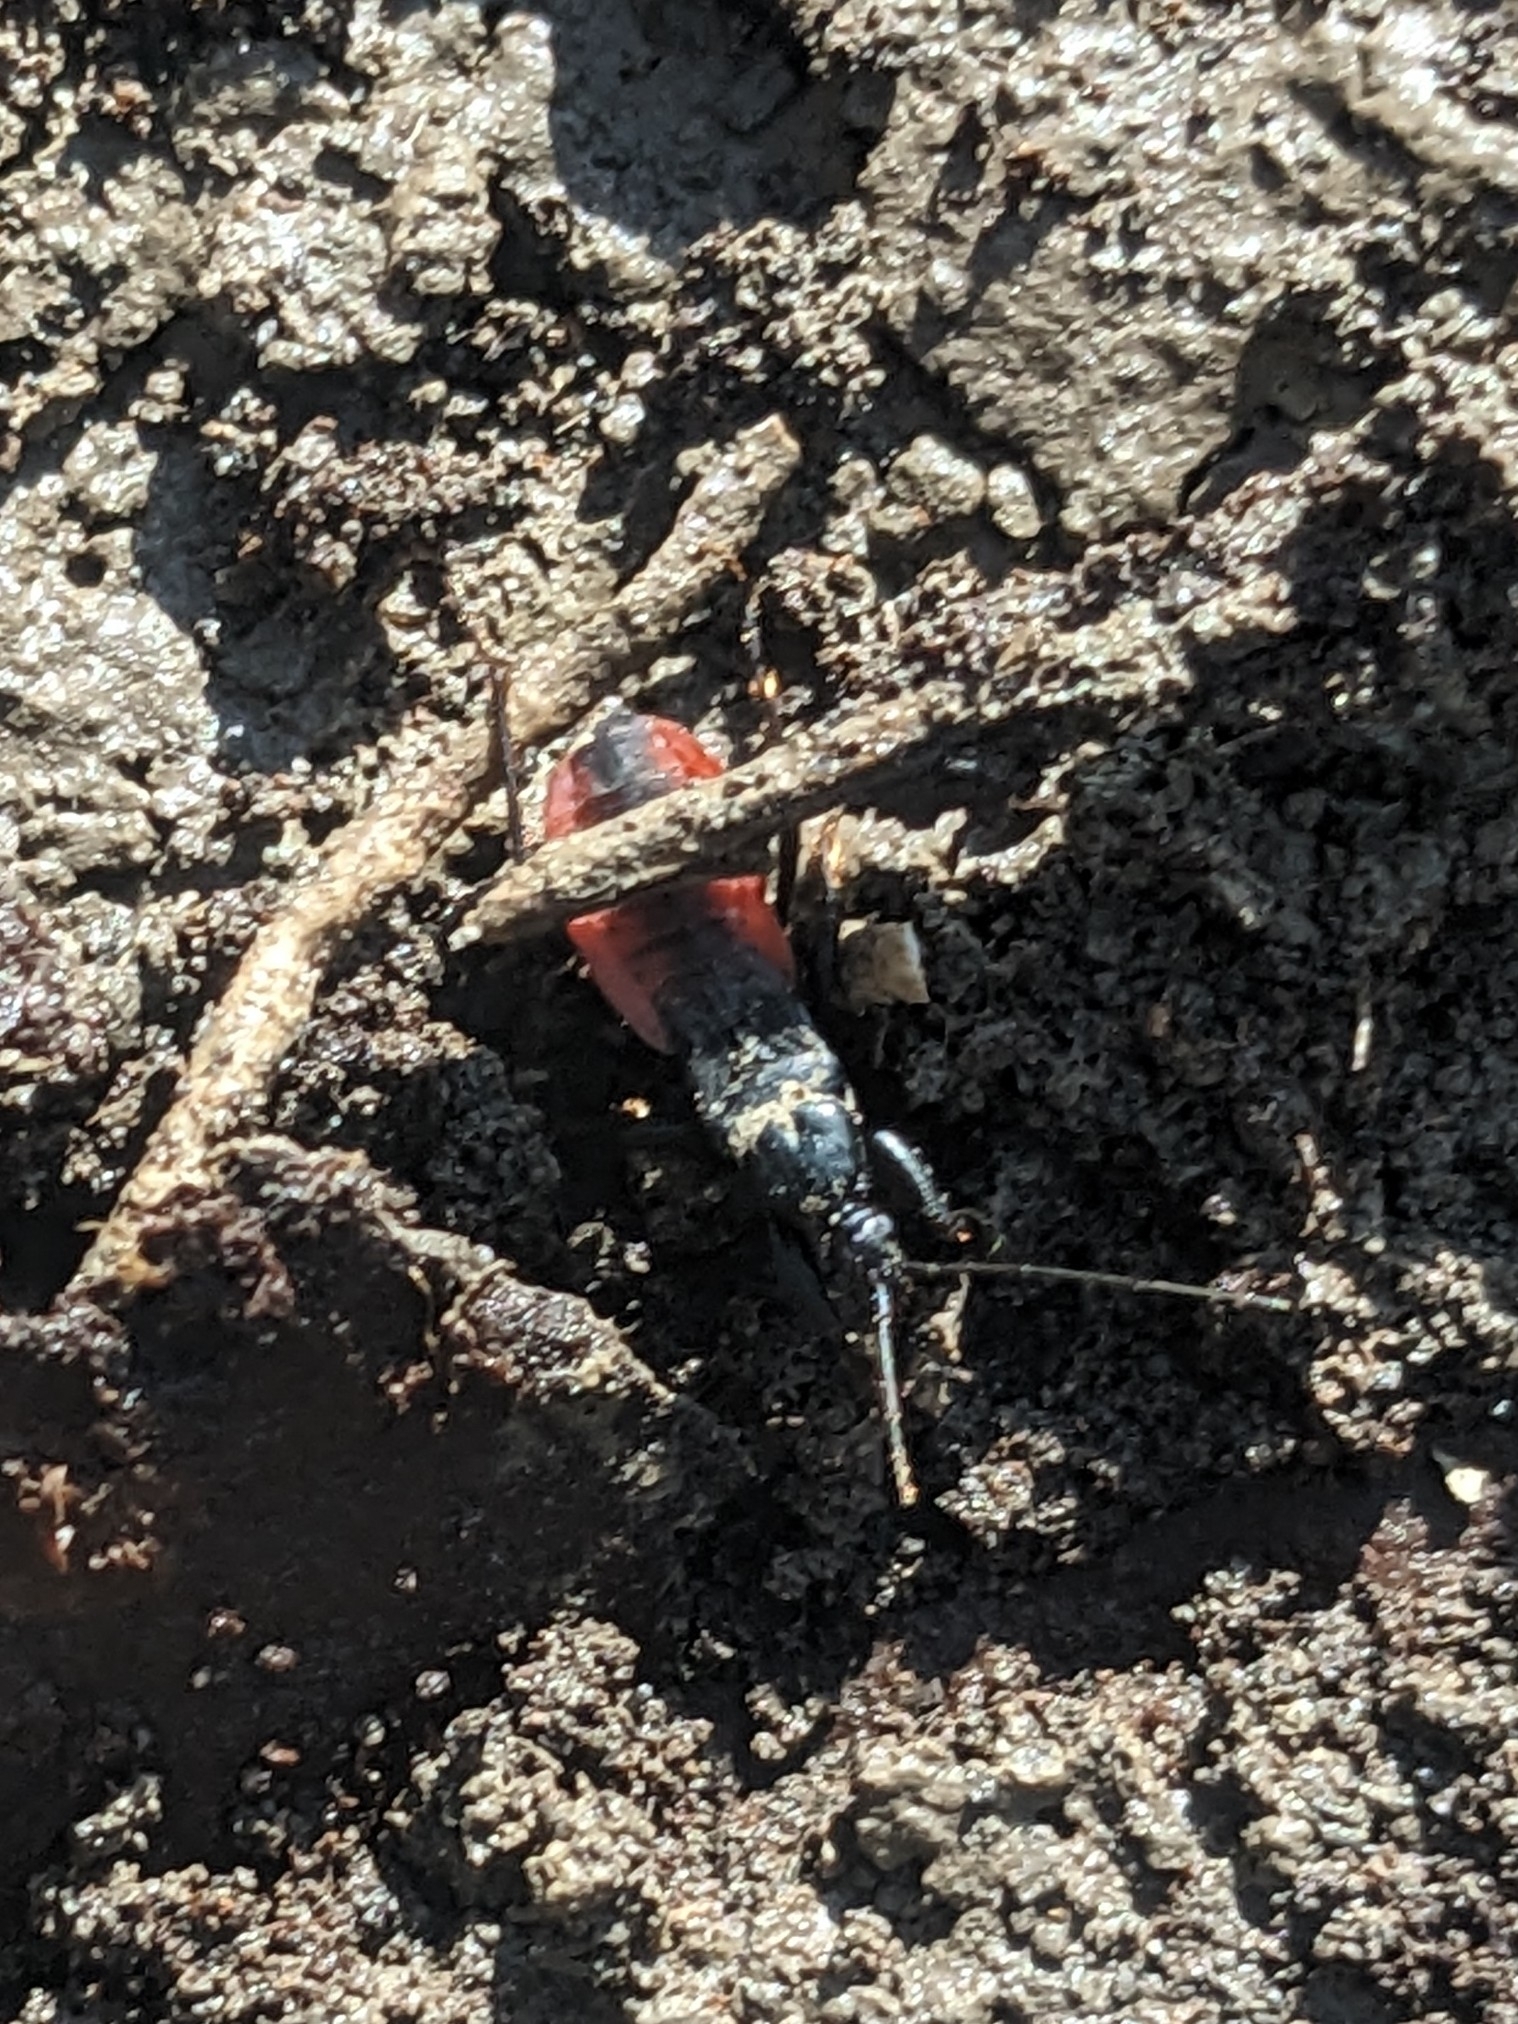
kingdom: Animalia
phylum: Arthropoda
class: Insecta
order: Hemiptera
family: Reduviidae
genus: Melanolestes
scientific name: Melanolestes picipes
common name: Assassin bug
